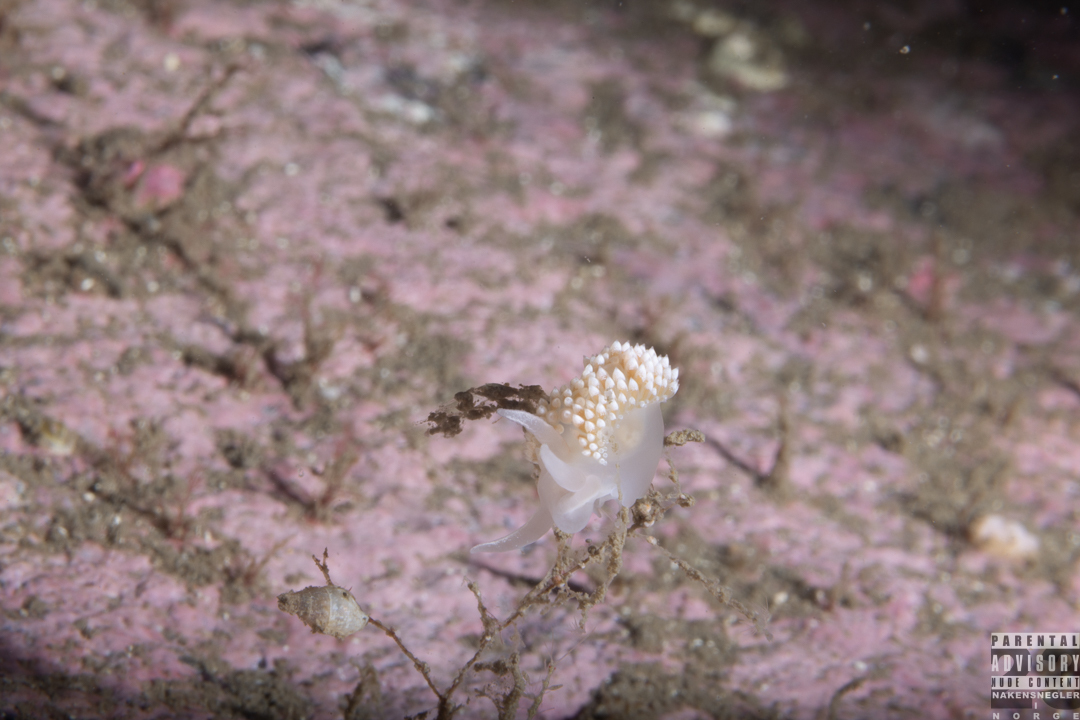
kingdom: Animalia
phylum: Mollusca
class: Gastropoda
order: Nudibranchia
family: Coryphellidae
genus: Coryphella
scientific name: Coryphella verrucosa
